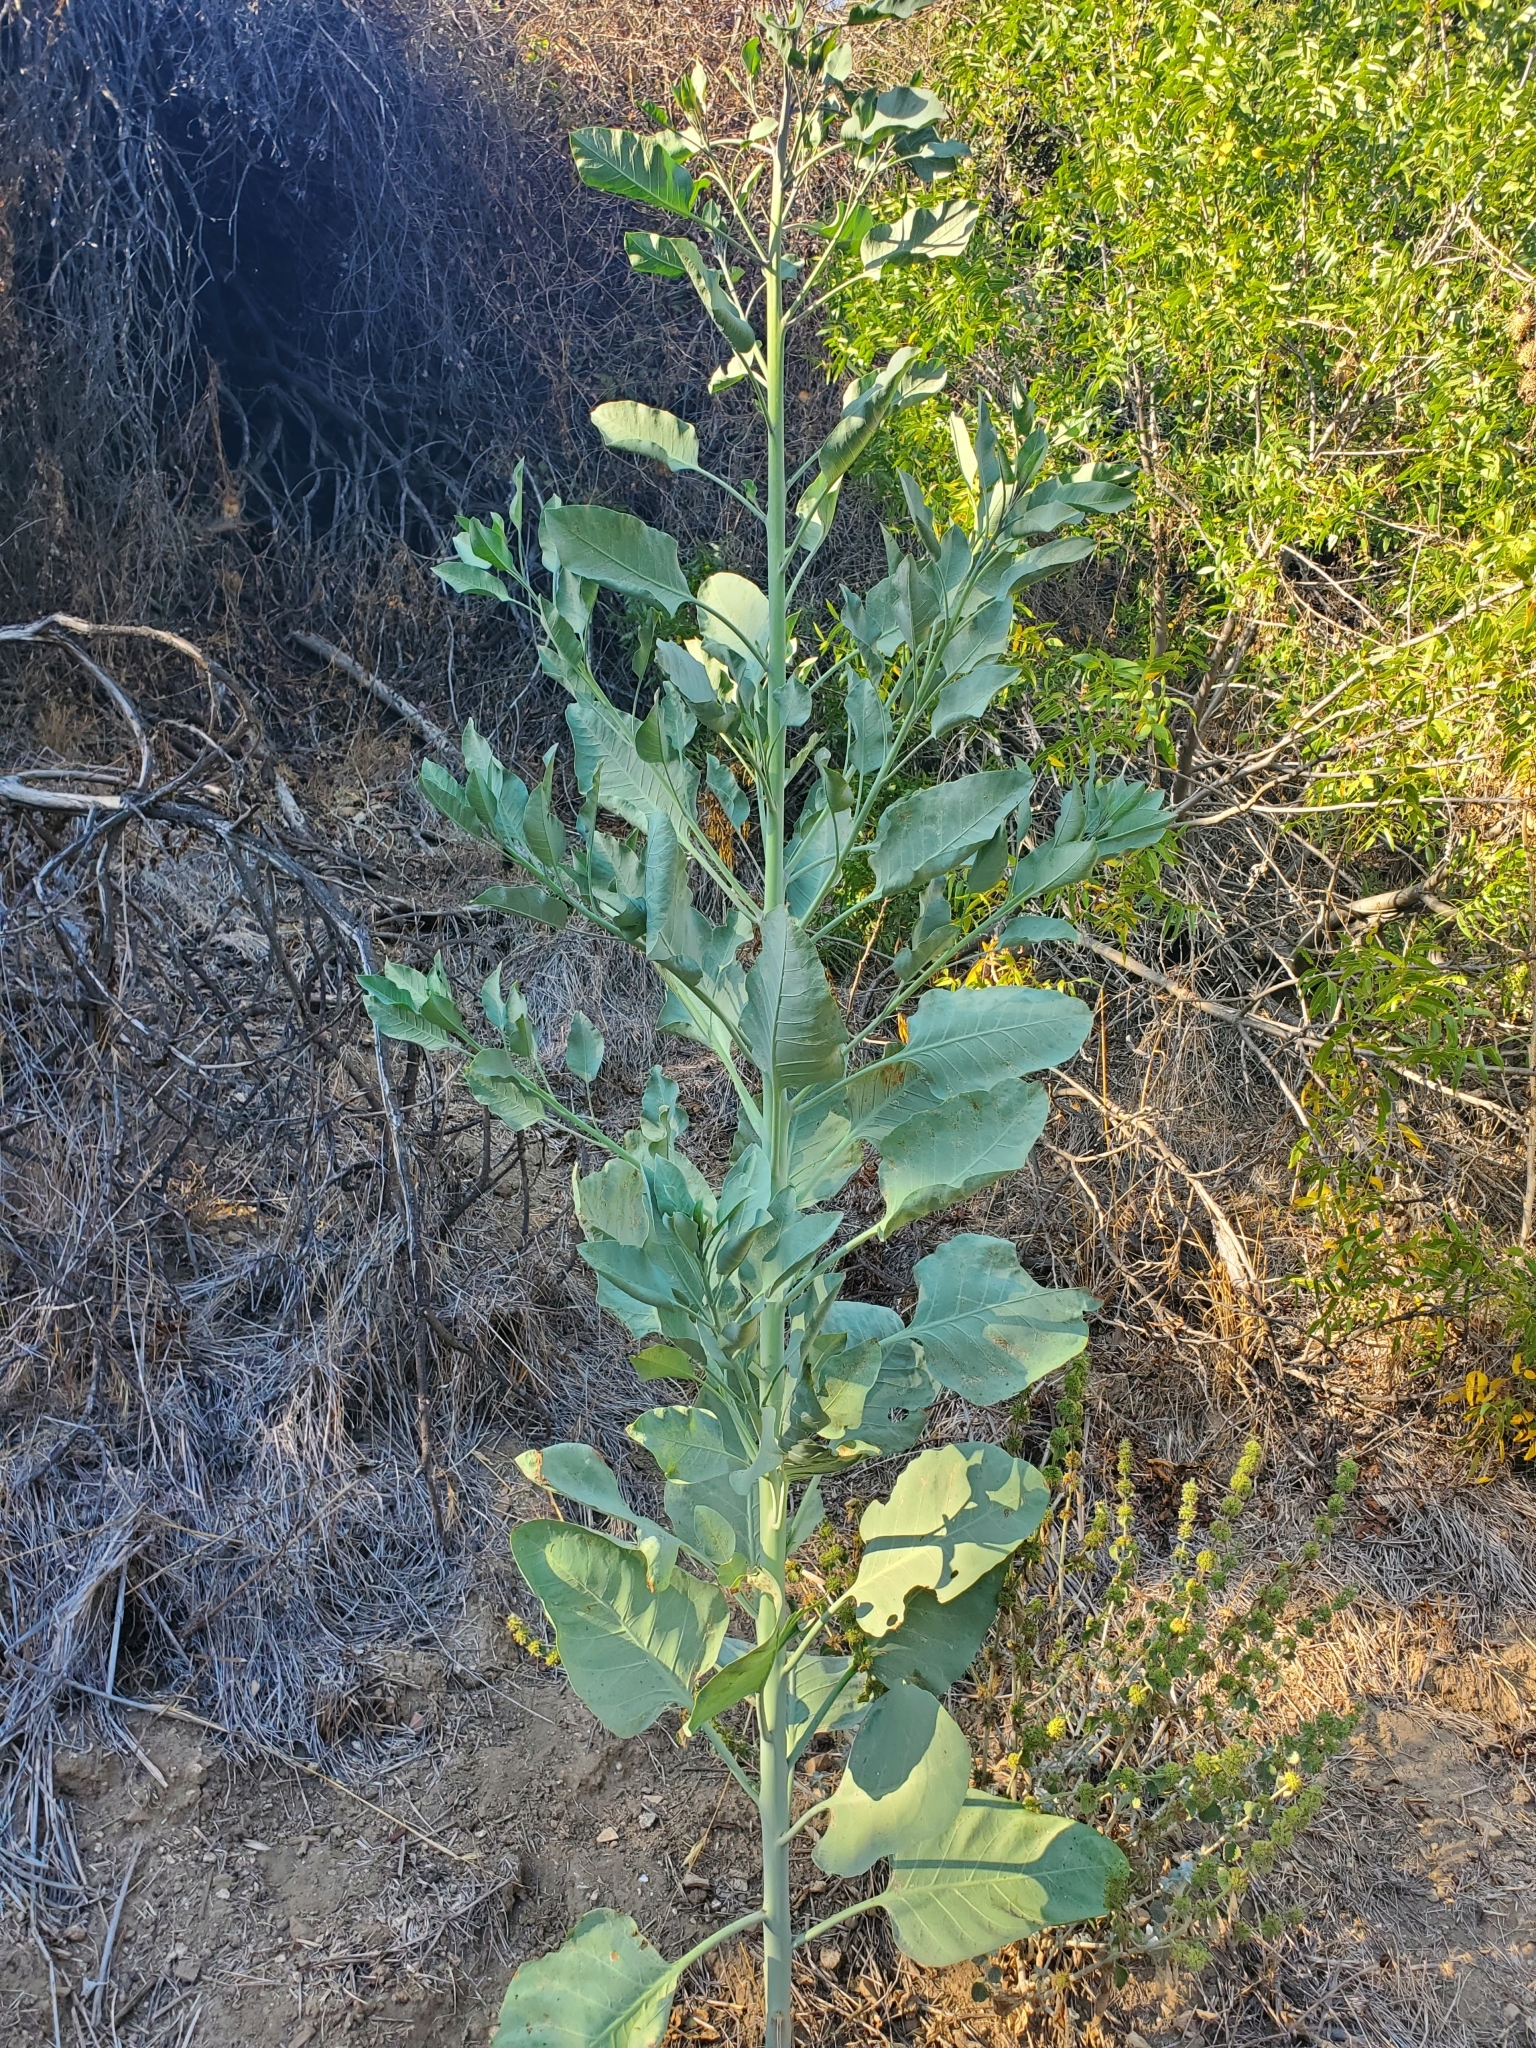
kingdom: Plantae
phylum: Tracheophyta
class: Magnoliopsida
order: Solanales
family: Solanaceae
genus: Nicotiana
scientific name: Nicotiana glauca
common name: Tree tobacco
